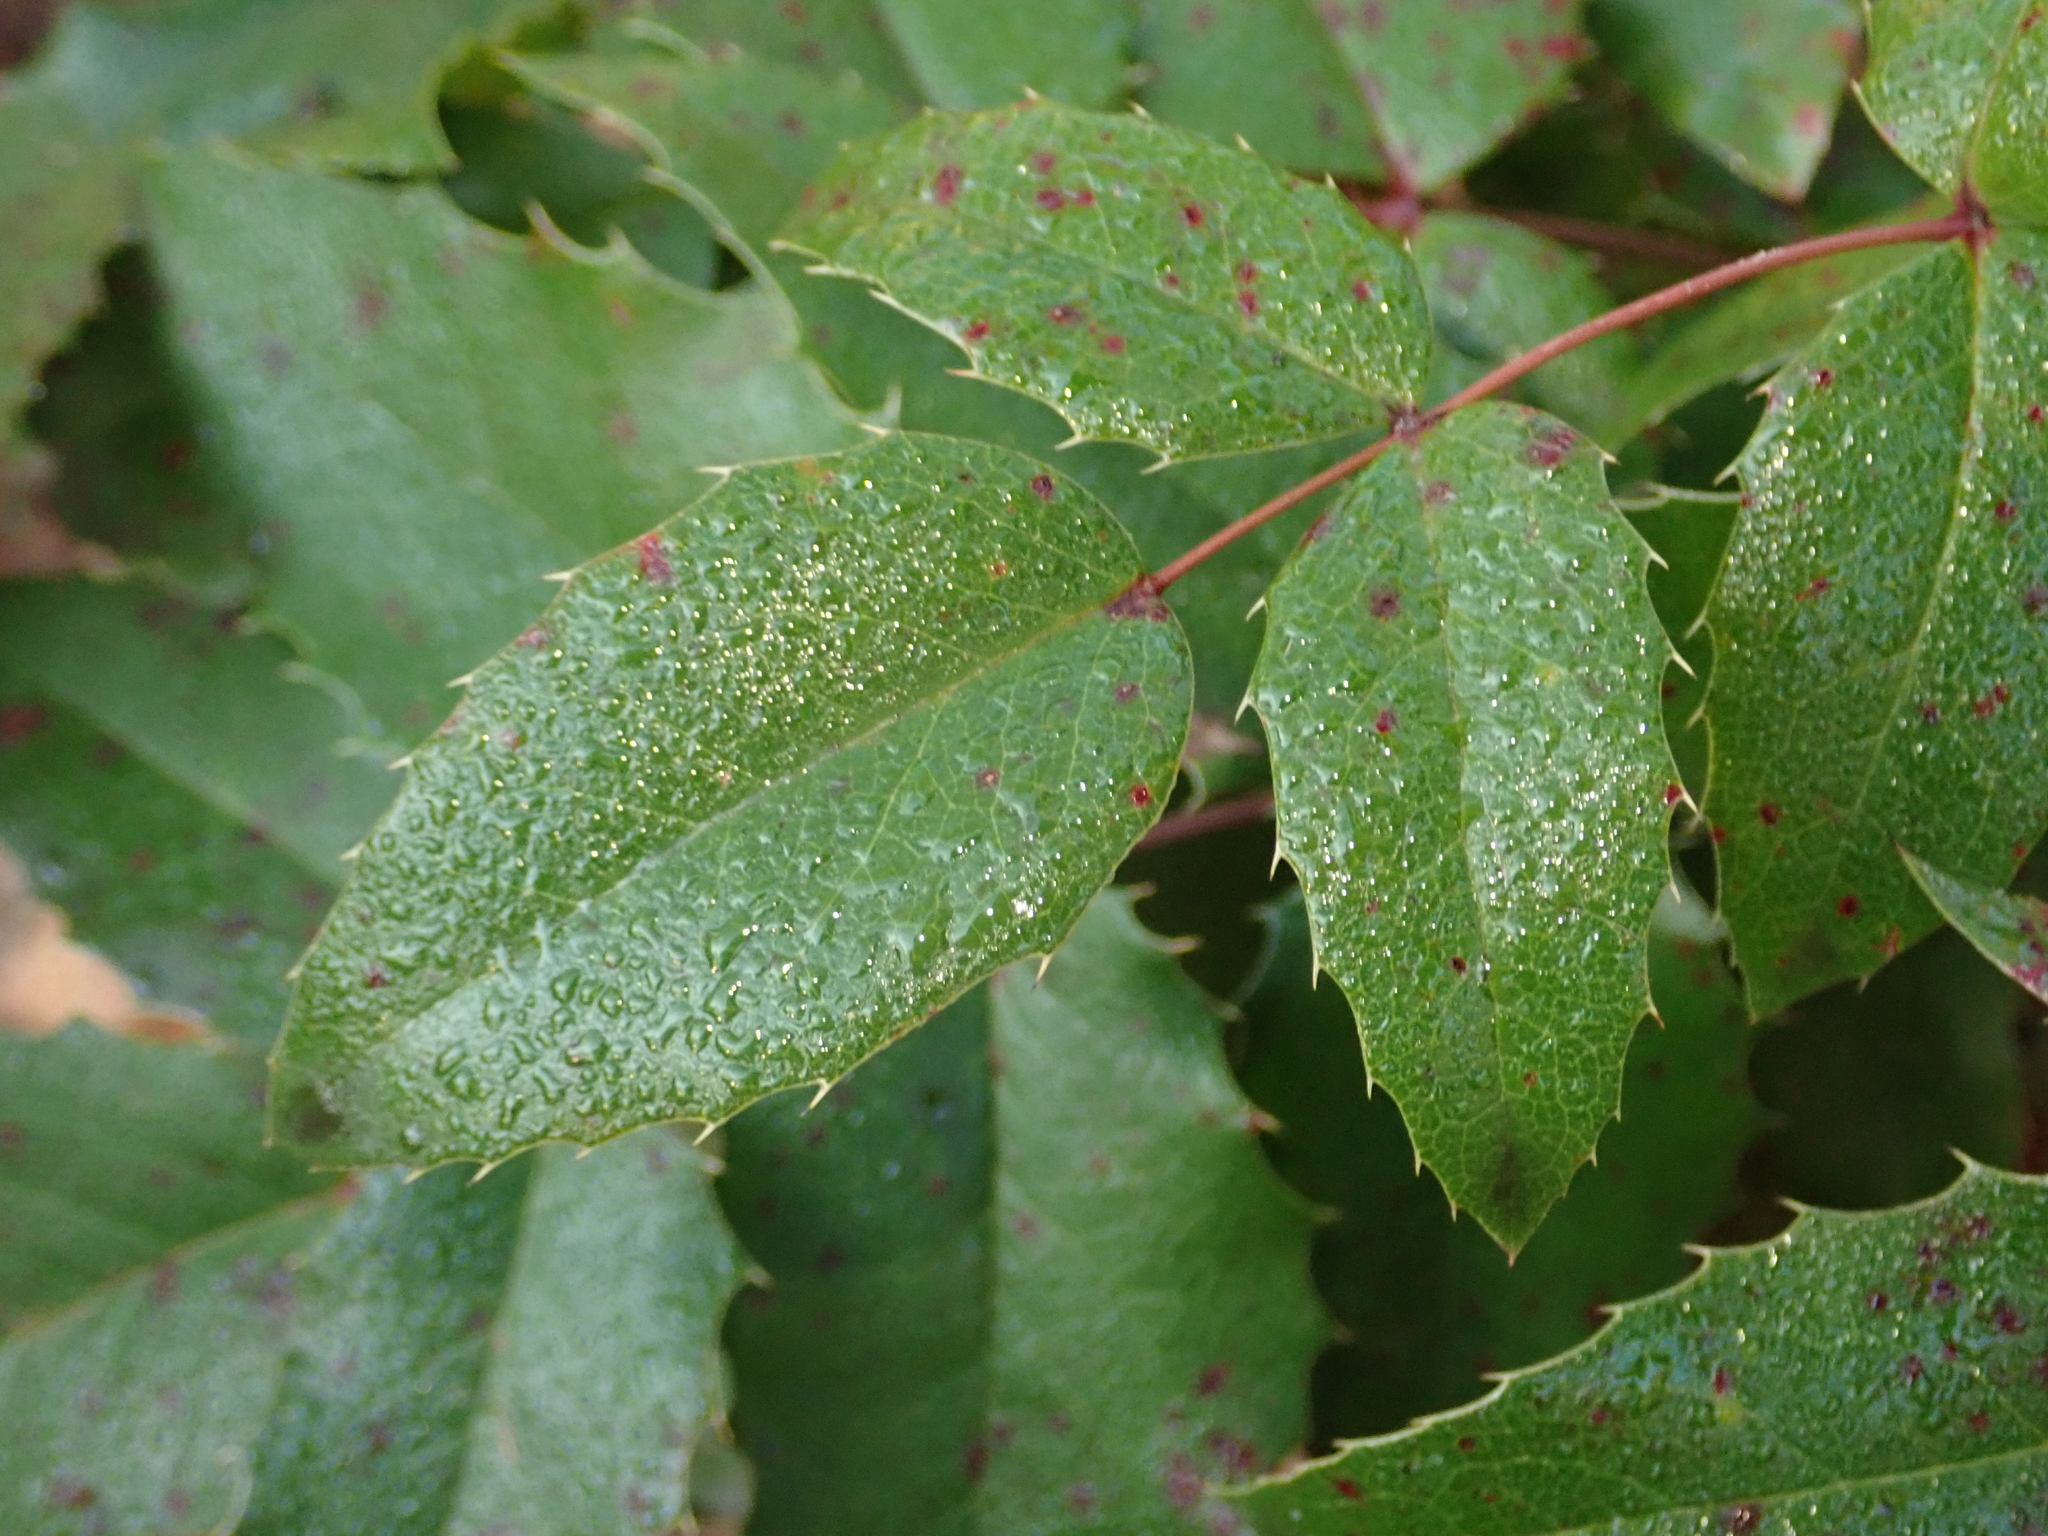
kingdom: Plantae
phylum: Tracheophyta
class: Magnoliopsida
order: Ranunculales
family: Berberidaceae
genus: Mahonia
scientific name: Mahonia aquifolium
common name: Oregon-grape
